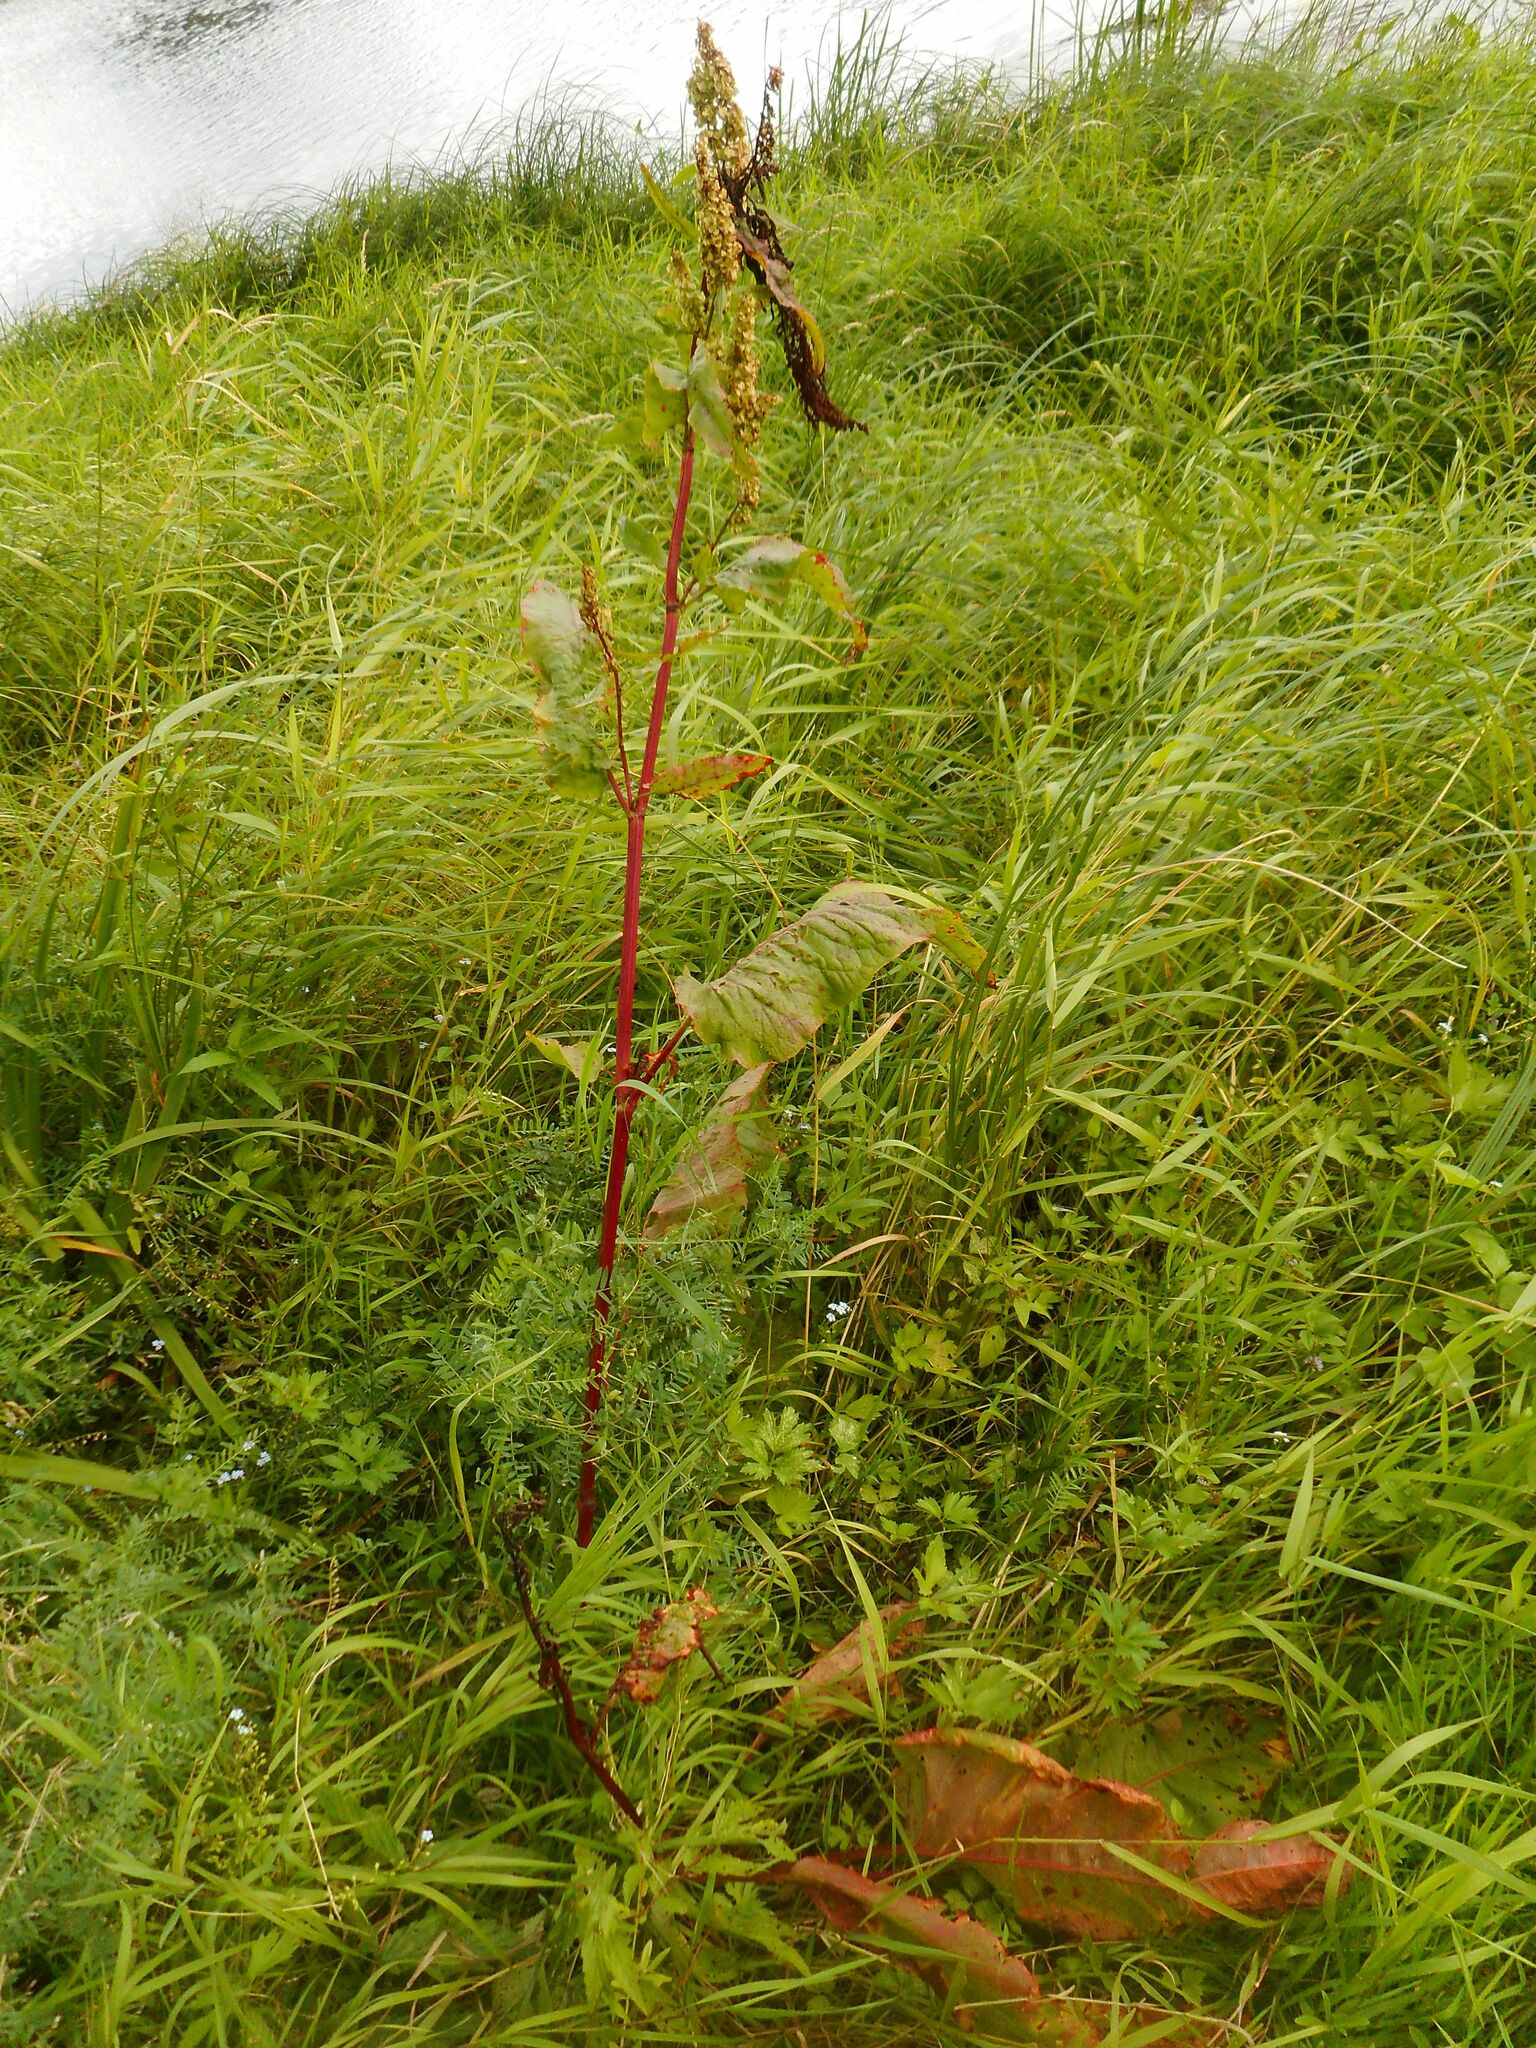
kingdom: Plantae
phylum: Tracheophyta
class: Magnoliopsida
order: Caryophyllales
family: Polygonaceae
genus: Rumex
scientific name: Rumex aquaticus
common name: Scottish dock
